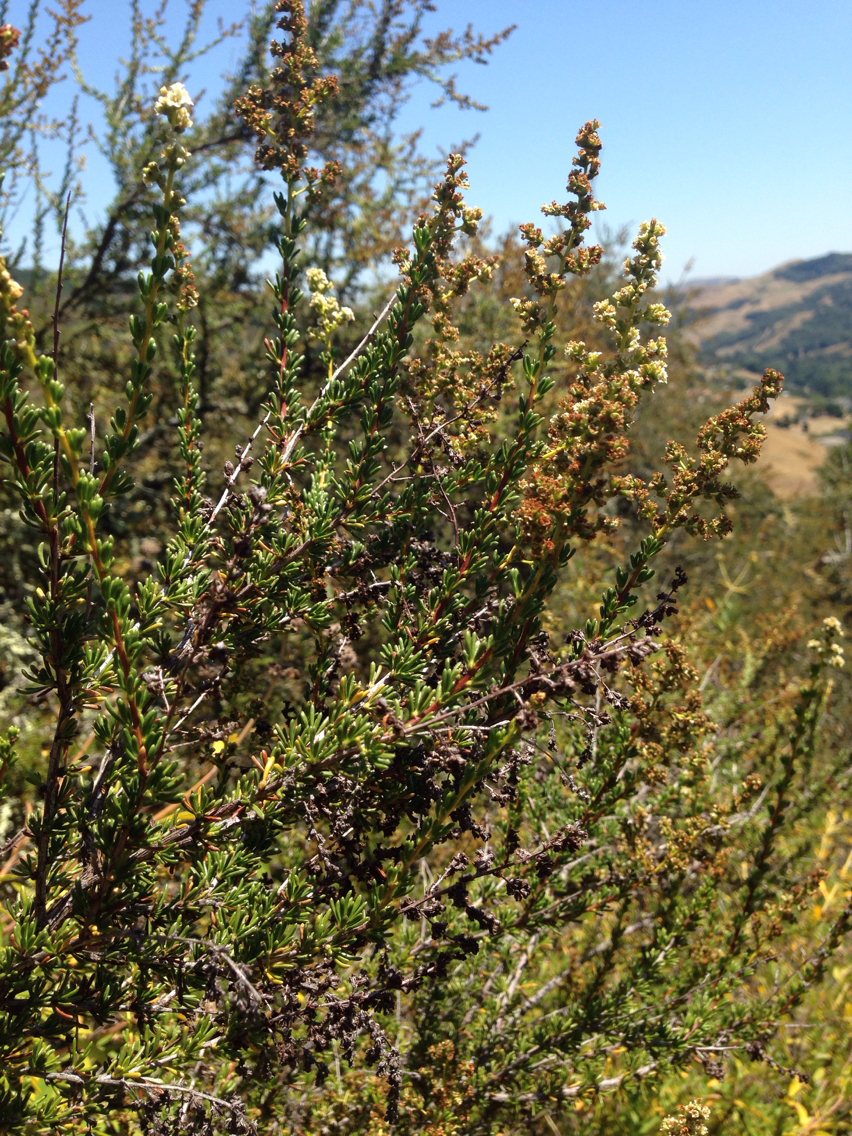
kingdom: Plantae
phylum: Tracheophyta
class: Magnoliopsida
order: Rosales
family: Rosaceae
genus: Adenostoma
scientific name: Adenostoma fasciculatum
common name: Chamise
